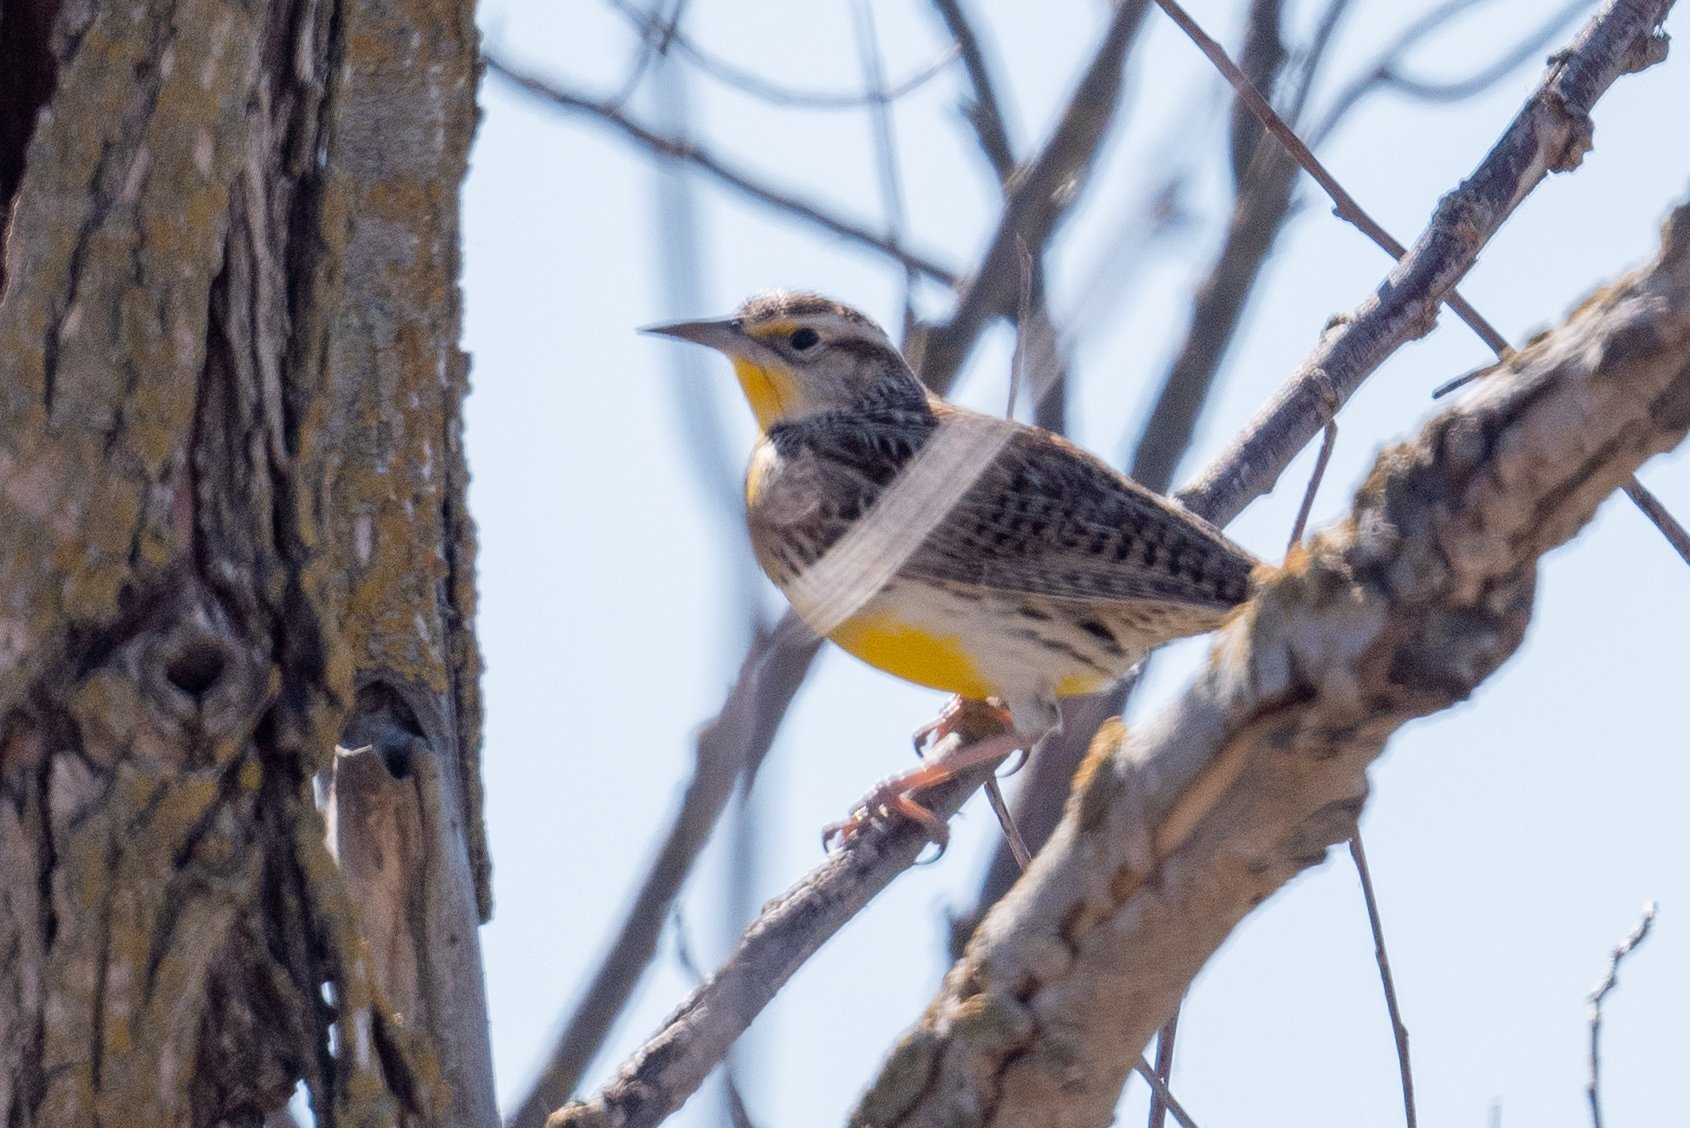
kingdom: Animalia
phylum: Chordata
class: Aves
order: Passeriformes
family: Icteridae
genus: Sturnella
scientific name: Sturnella neglecta
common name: Western meadowlark
